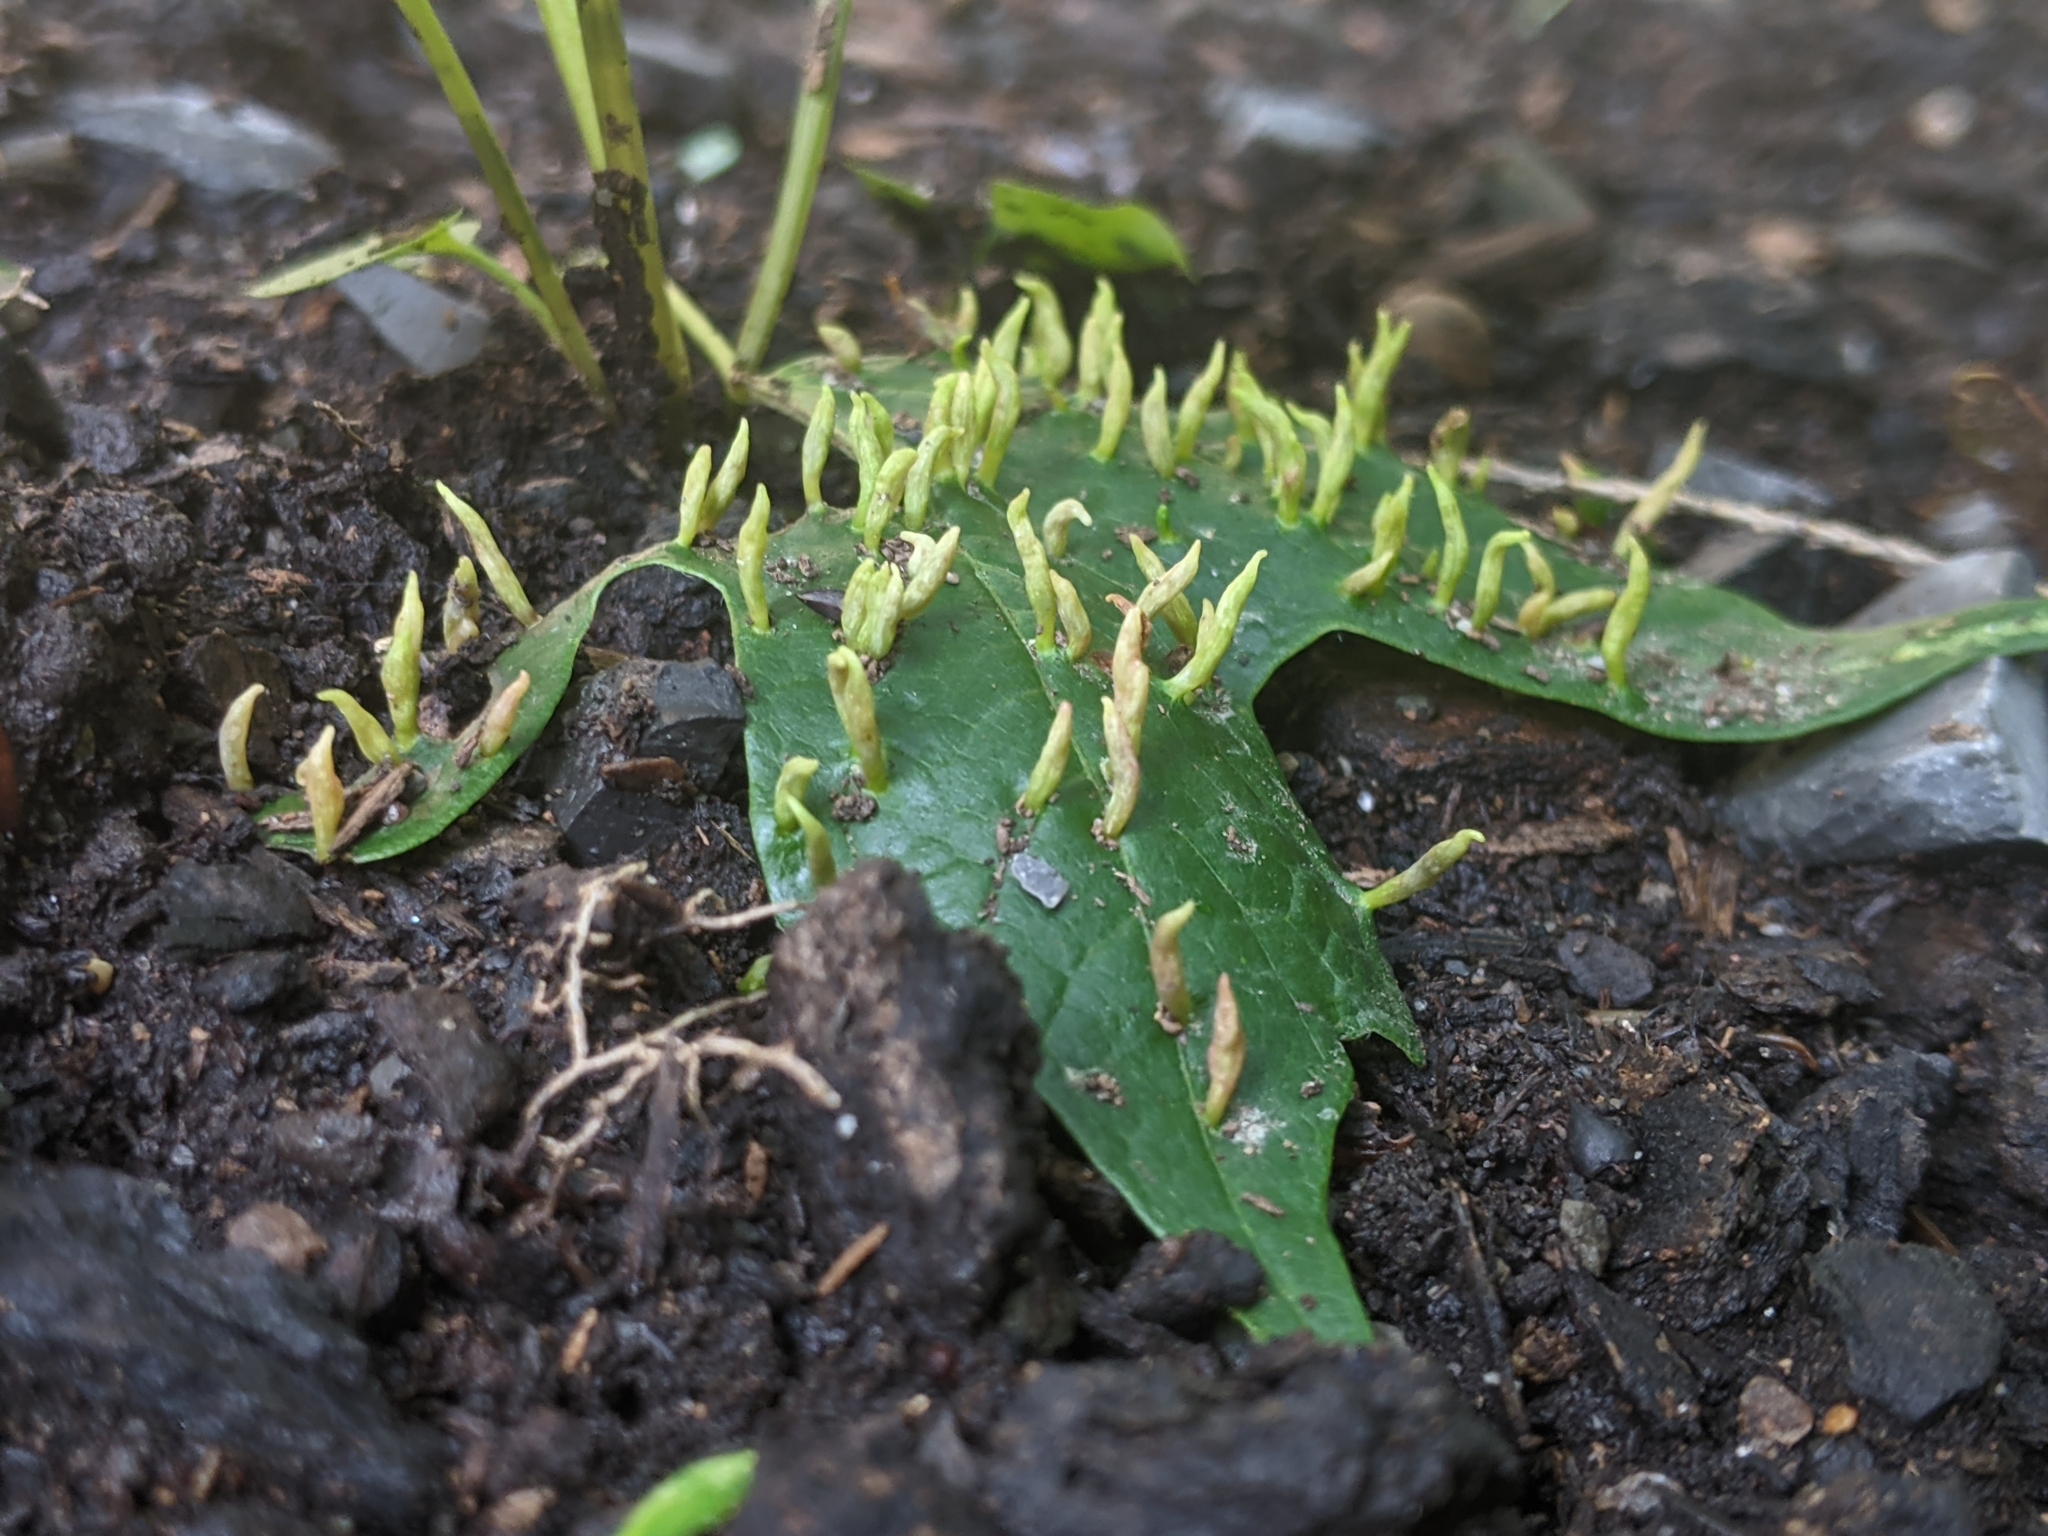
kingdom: Animalia
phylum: Arthropoda
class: Arachnida
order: Trombidiformes
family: Eriophyidae
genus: Vasates
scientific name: Vasates aceriscrumena
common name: Maple spindle gall mite
